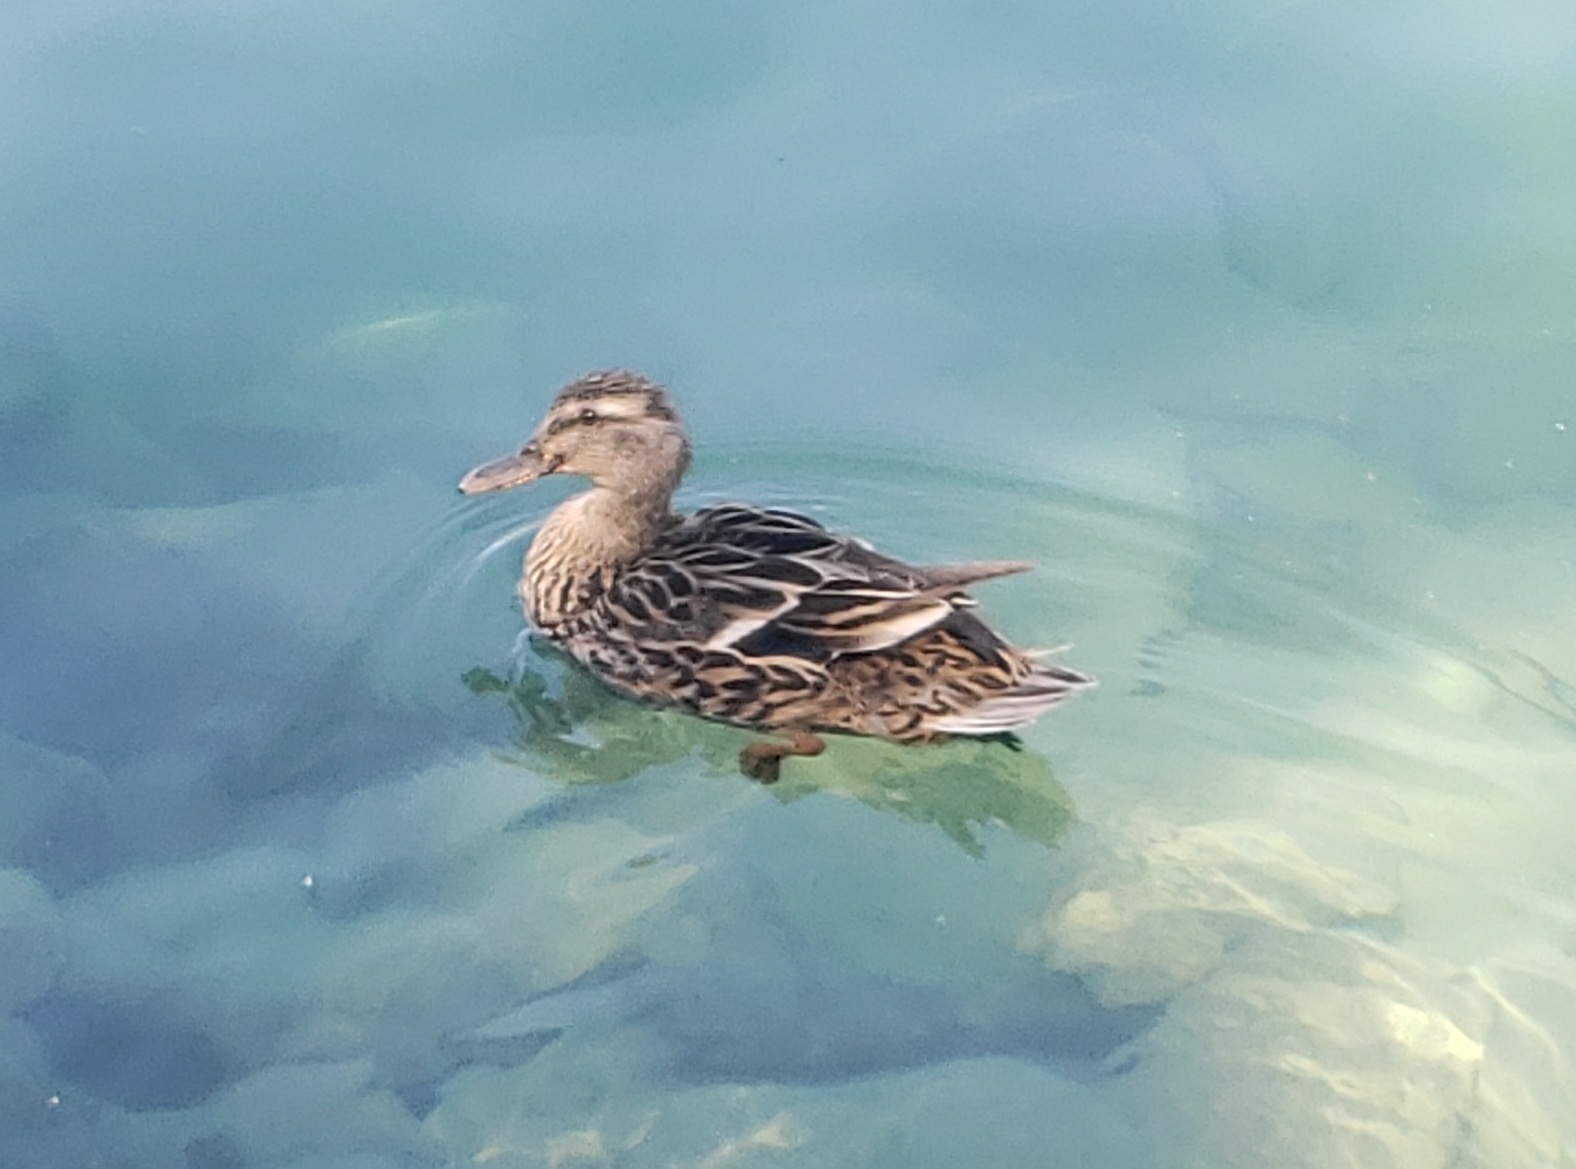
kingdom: Animalia
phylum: Chordata
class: Aves
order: Anseriformes
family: Anatidae
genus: Anas
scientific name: Anas platyrhynchos
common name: Mallard
